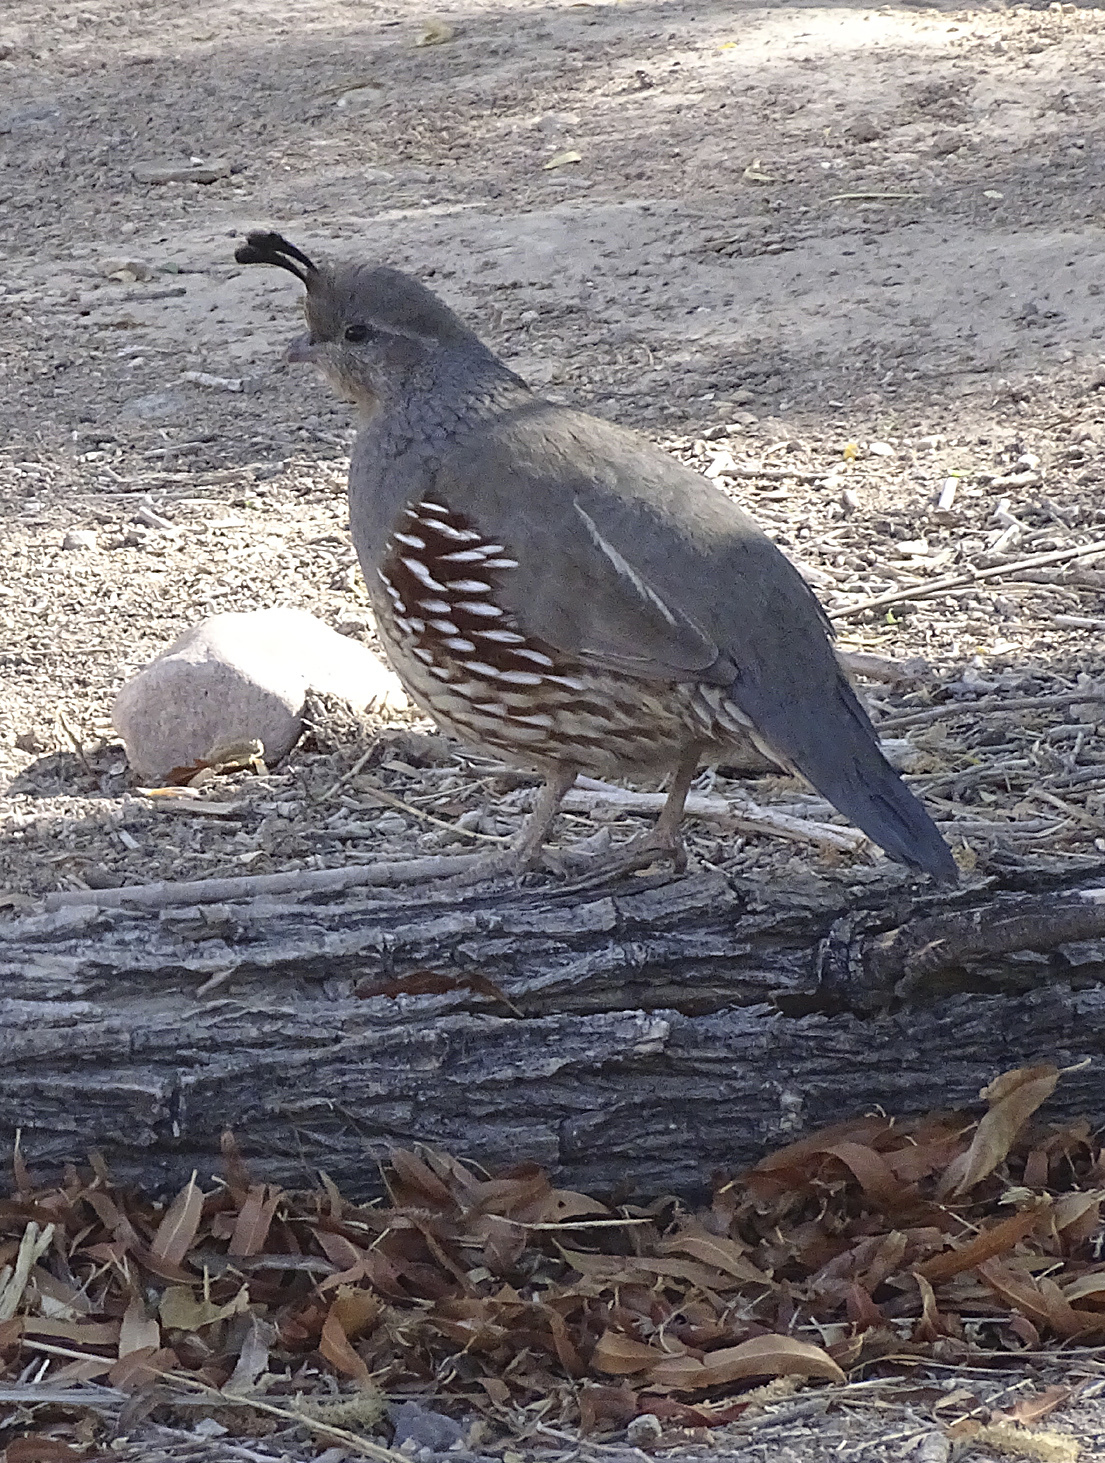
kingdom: Animalia
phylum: Chordata
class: Aves
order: Galliformes
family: Odontophoridae
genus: Callipepla
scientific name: Callipepla gambelii
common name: Gambel's quail
